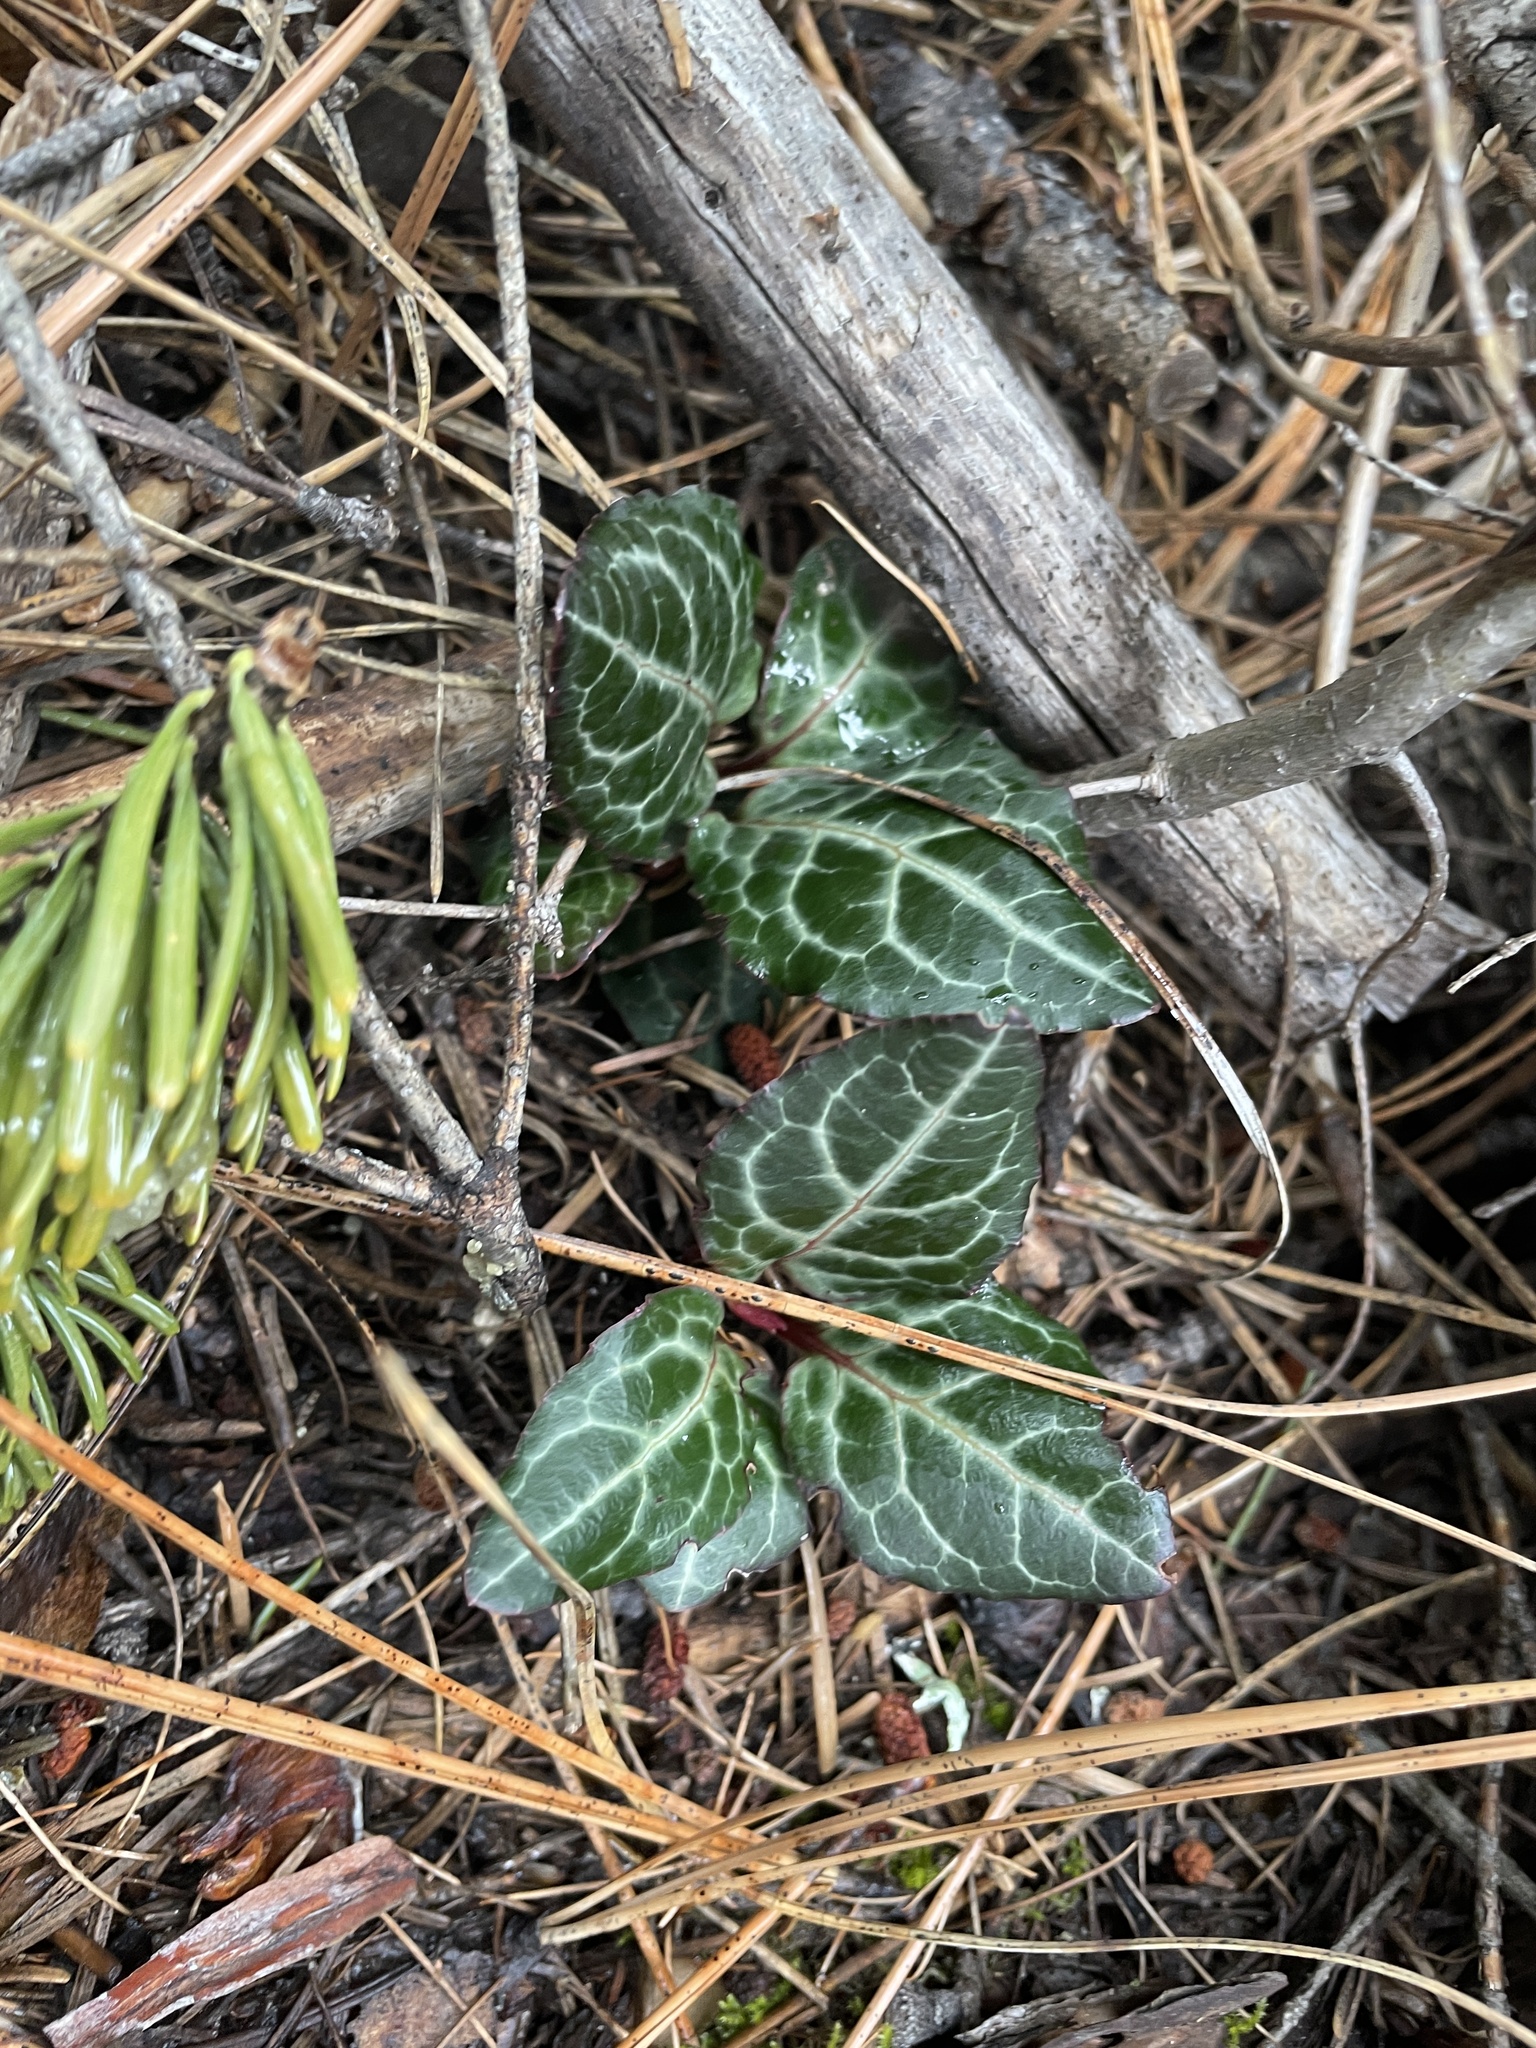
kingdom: Plantae
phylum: Tracheophyta
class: Magnoliopsida
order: Ericales
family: Ericaceae
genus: Pyrola
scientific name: Pyrola picta
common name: White-vein wintergreen
